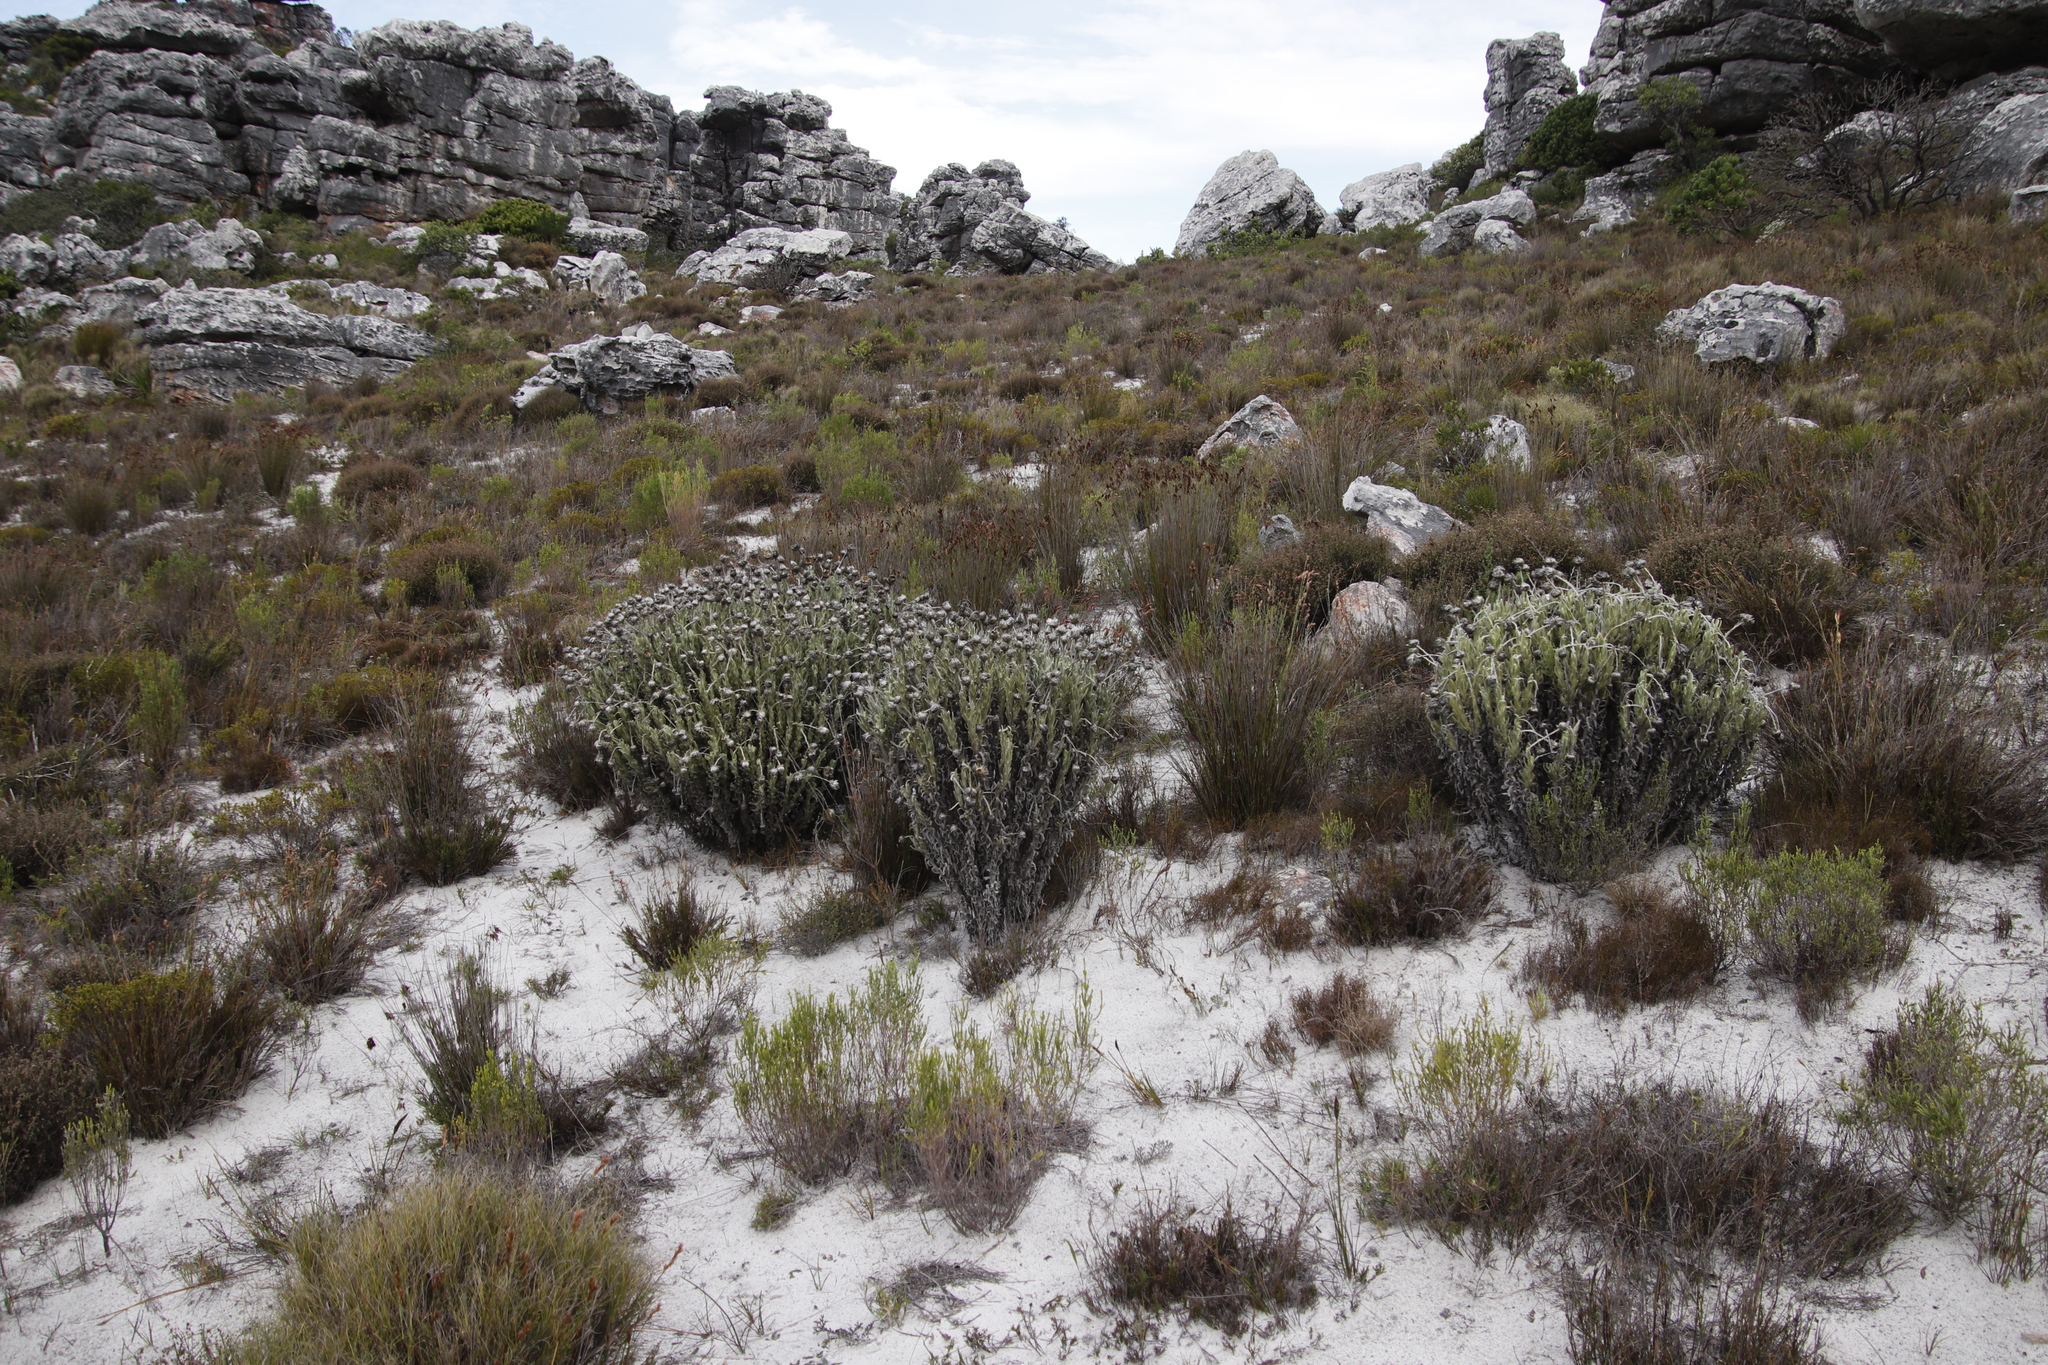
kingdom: Plantae
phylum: Tracheophyta
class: Magnoliopsida
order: Asterales
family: Asteraceae
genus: Syncarpha
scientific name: Syncarpha vestita
